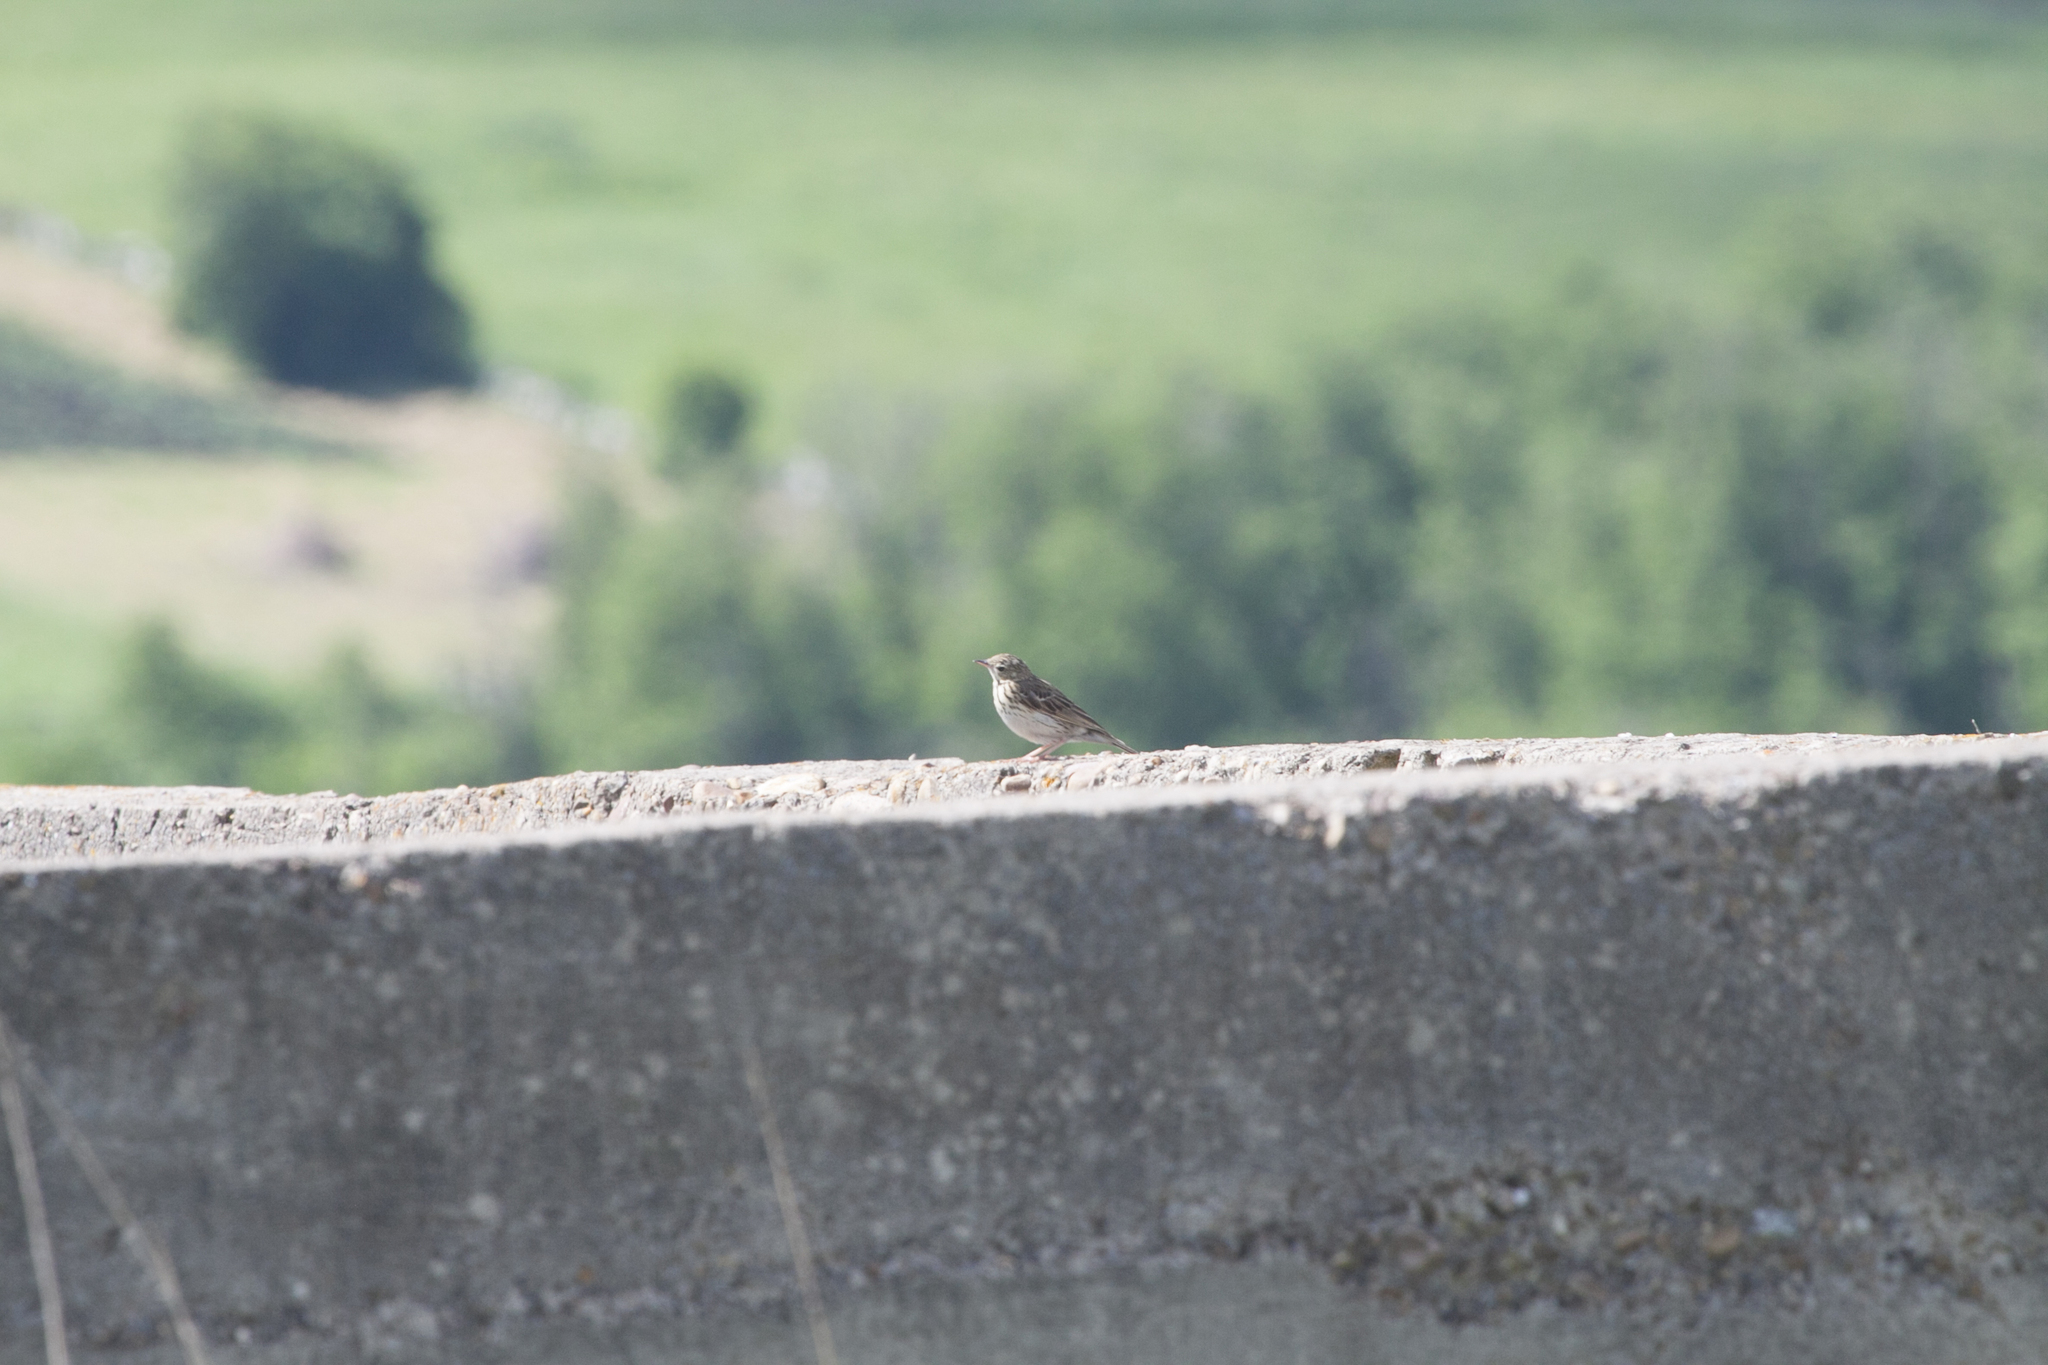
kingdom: Animalia
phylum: Chordata
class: Aves
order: Passeriformes
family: Motacillidae
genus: Anthus
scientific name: Anthus trivialis
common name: Tree pipit
